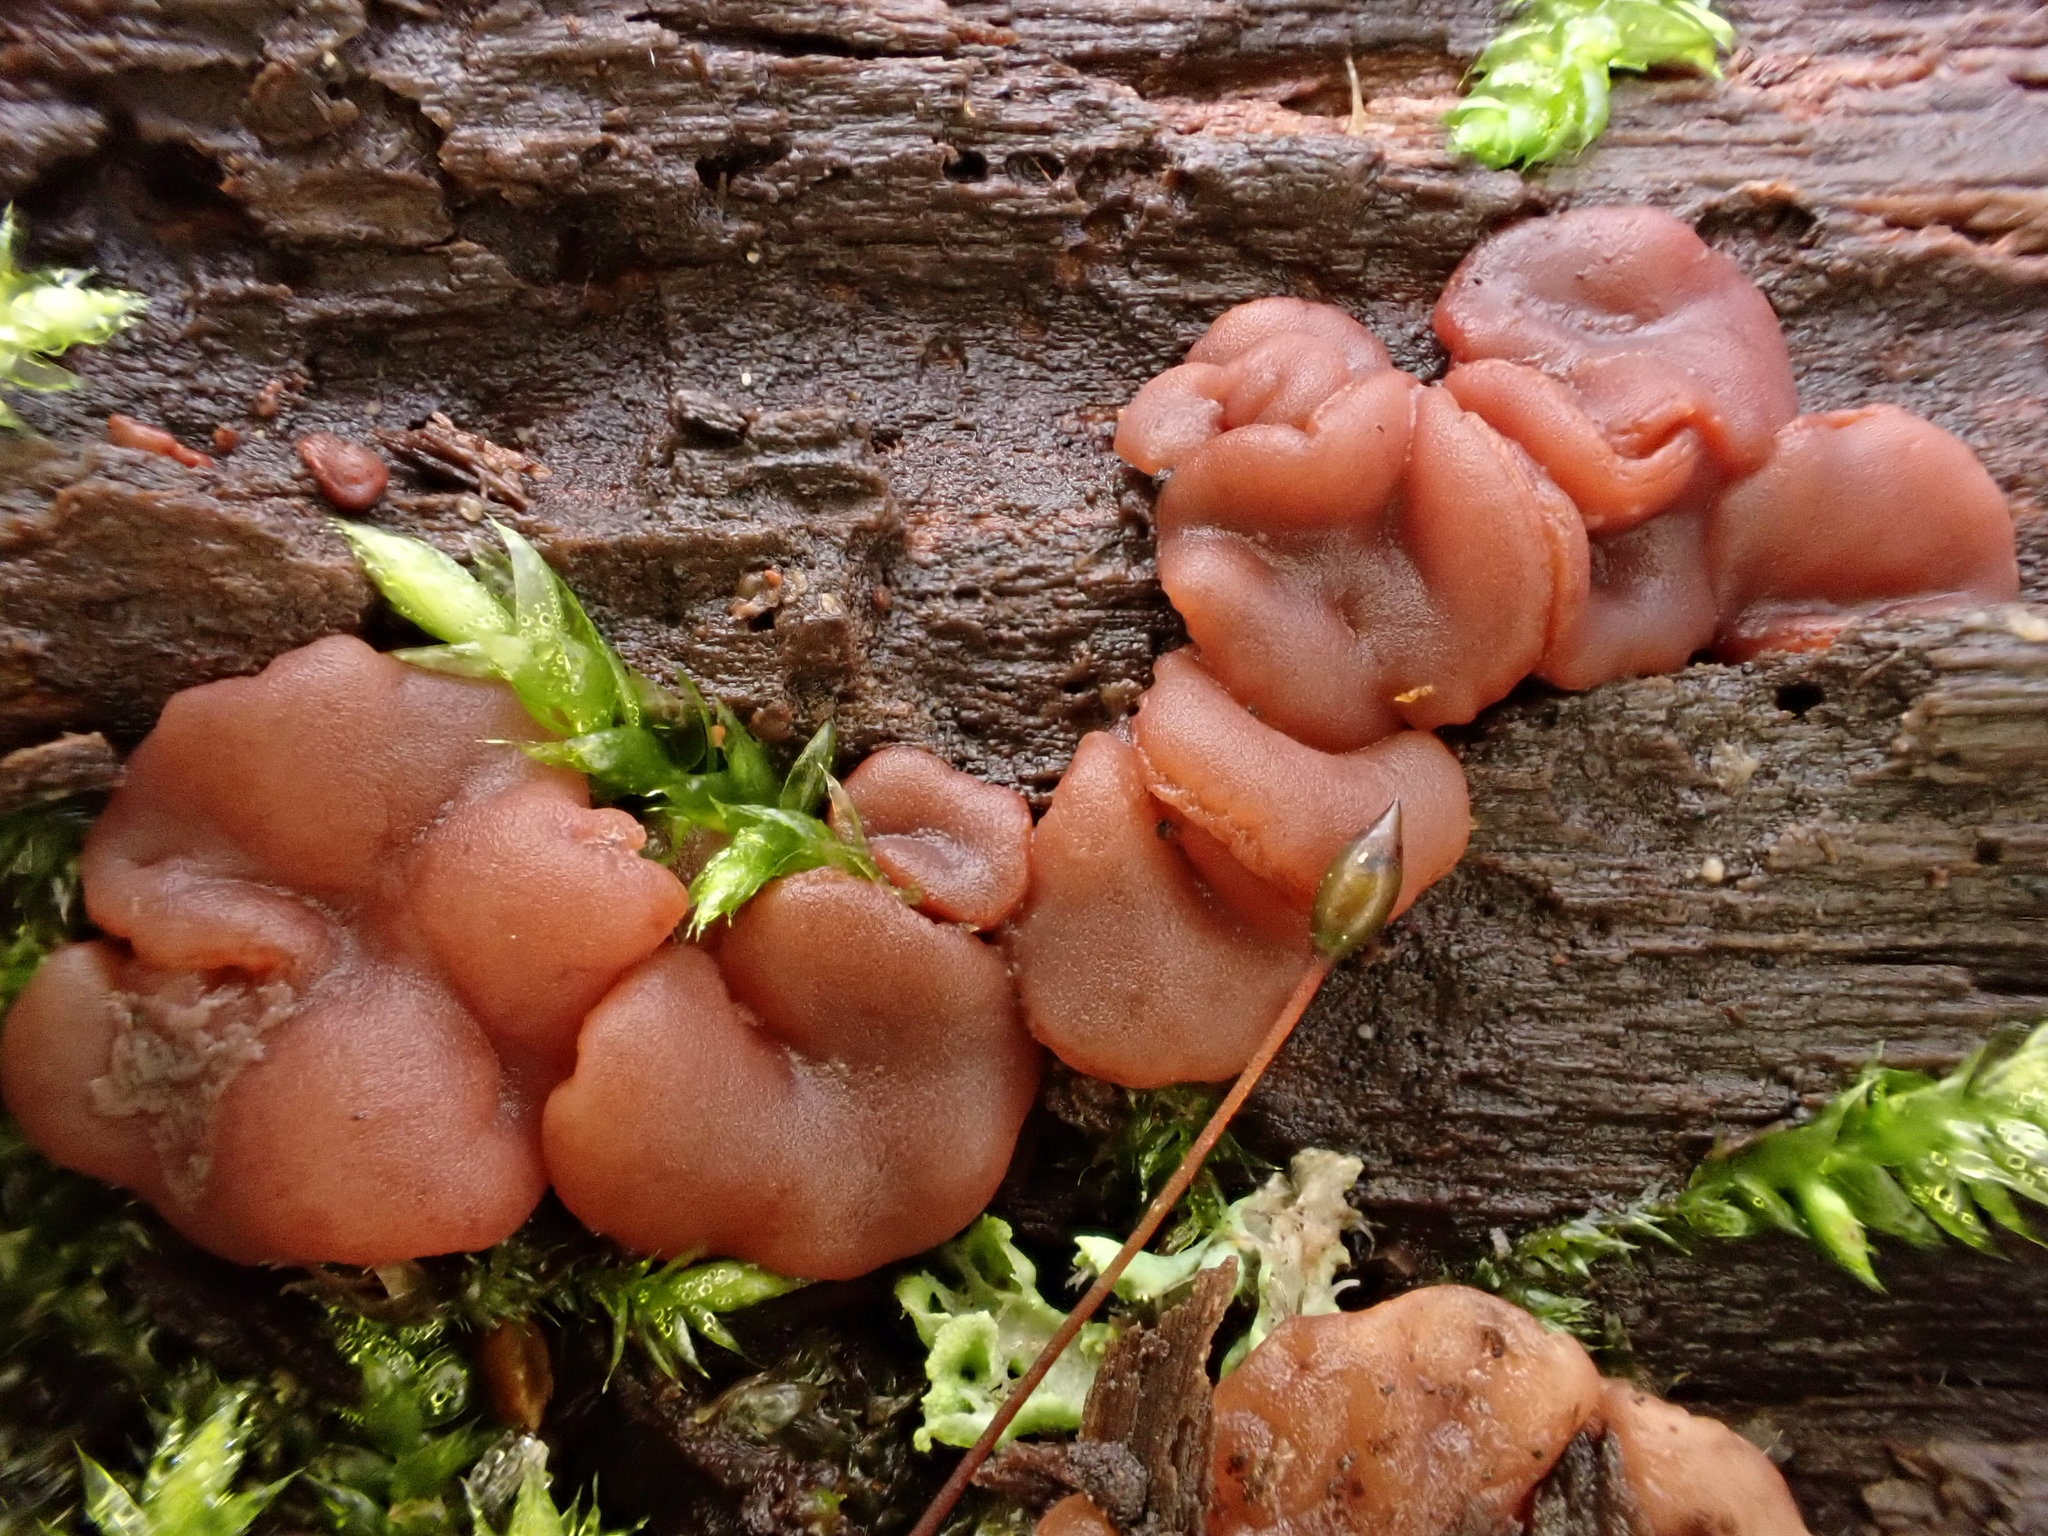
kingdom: Fungi
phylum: Ascomycota
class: Leotiomycetes
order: Helotiales
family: Gelatinodiscaceae
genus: Ascocoryne
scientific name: Ascocoryne
